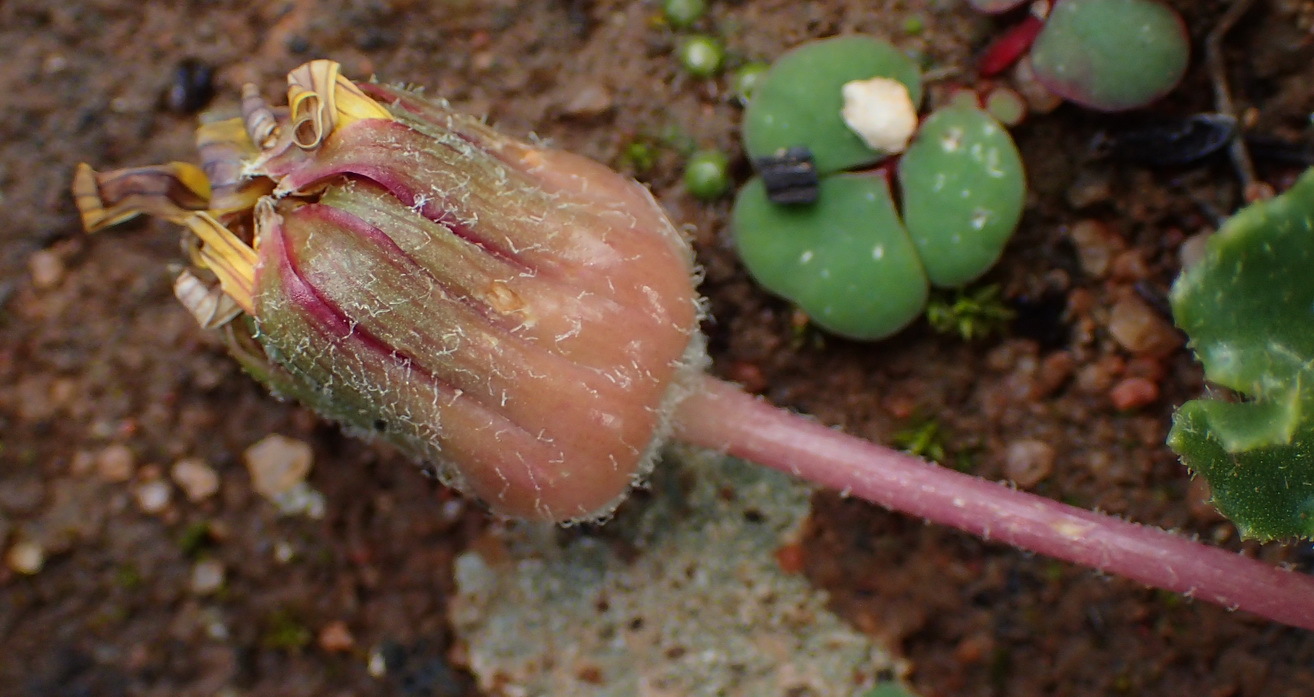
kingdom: Plantae
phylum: Tracheophyta
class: Magnoliopsida
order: Asterales
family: Asteraceae
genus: Othonna
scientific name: Othonna heterophylla
